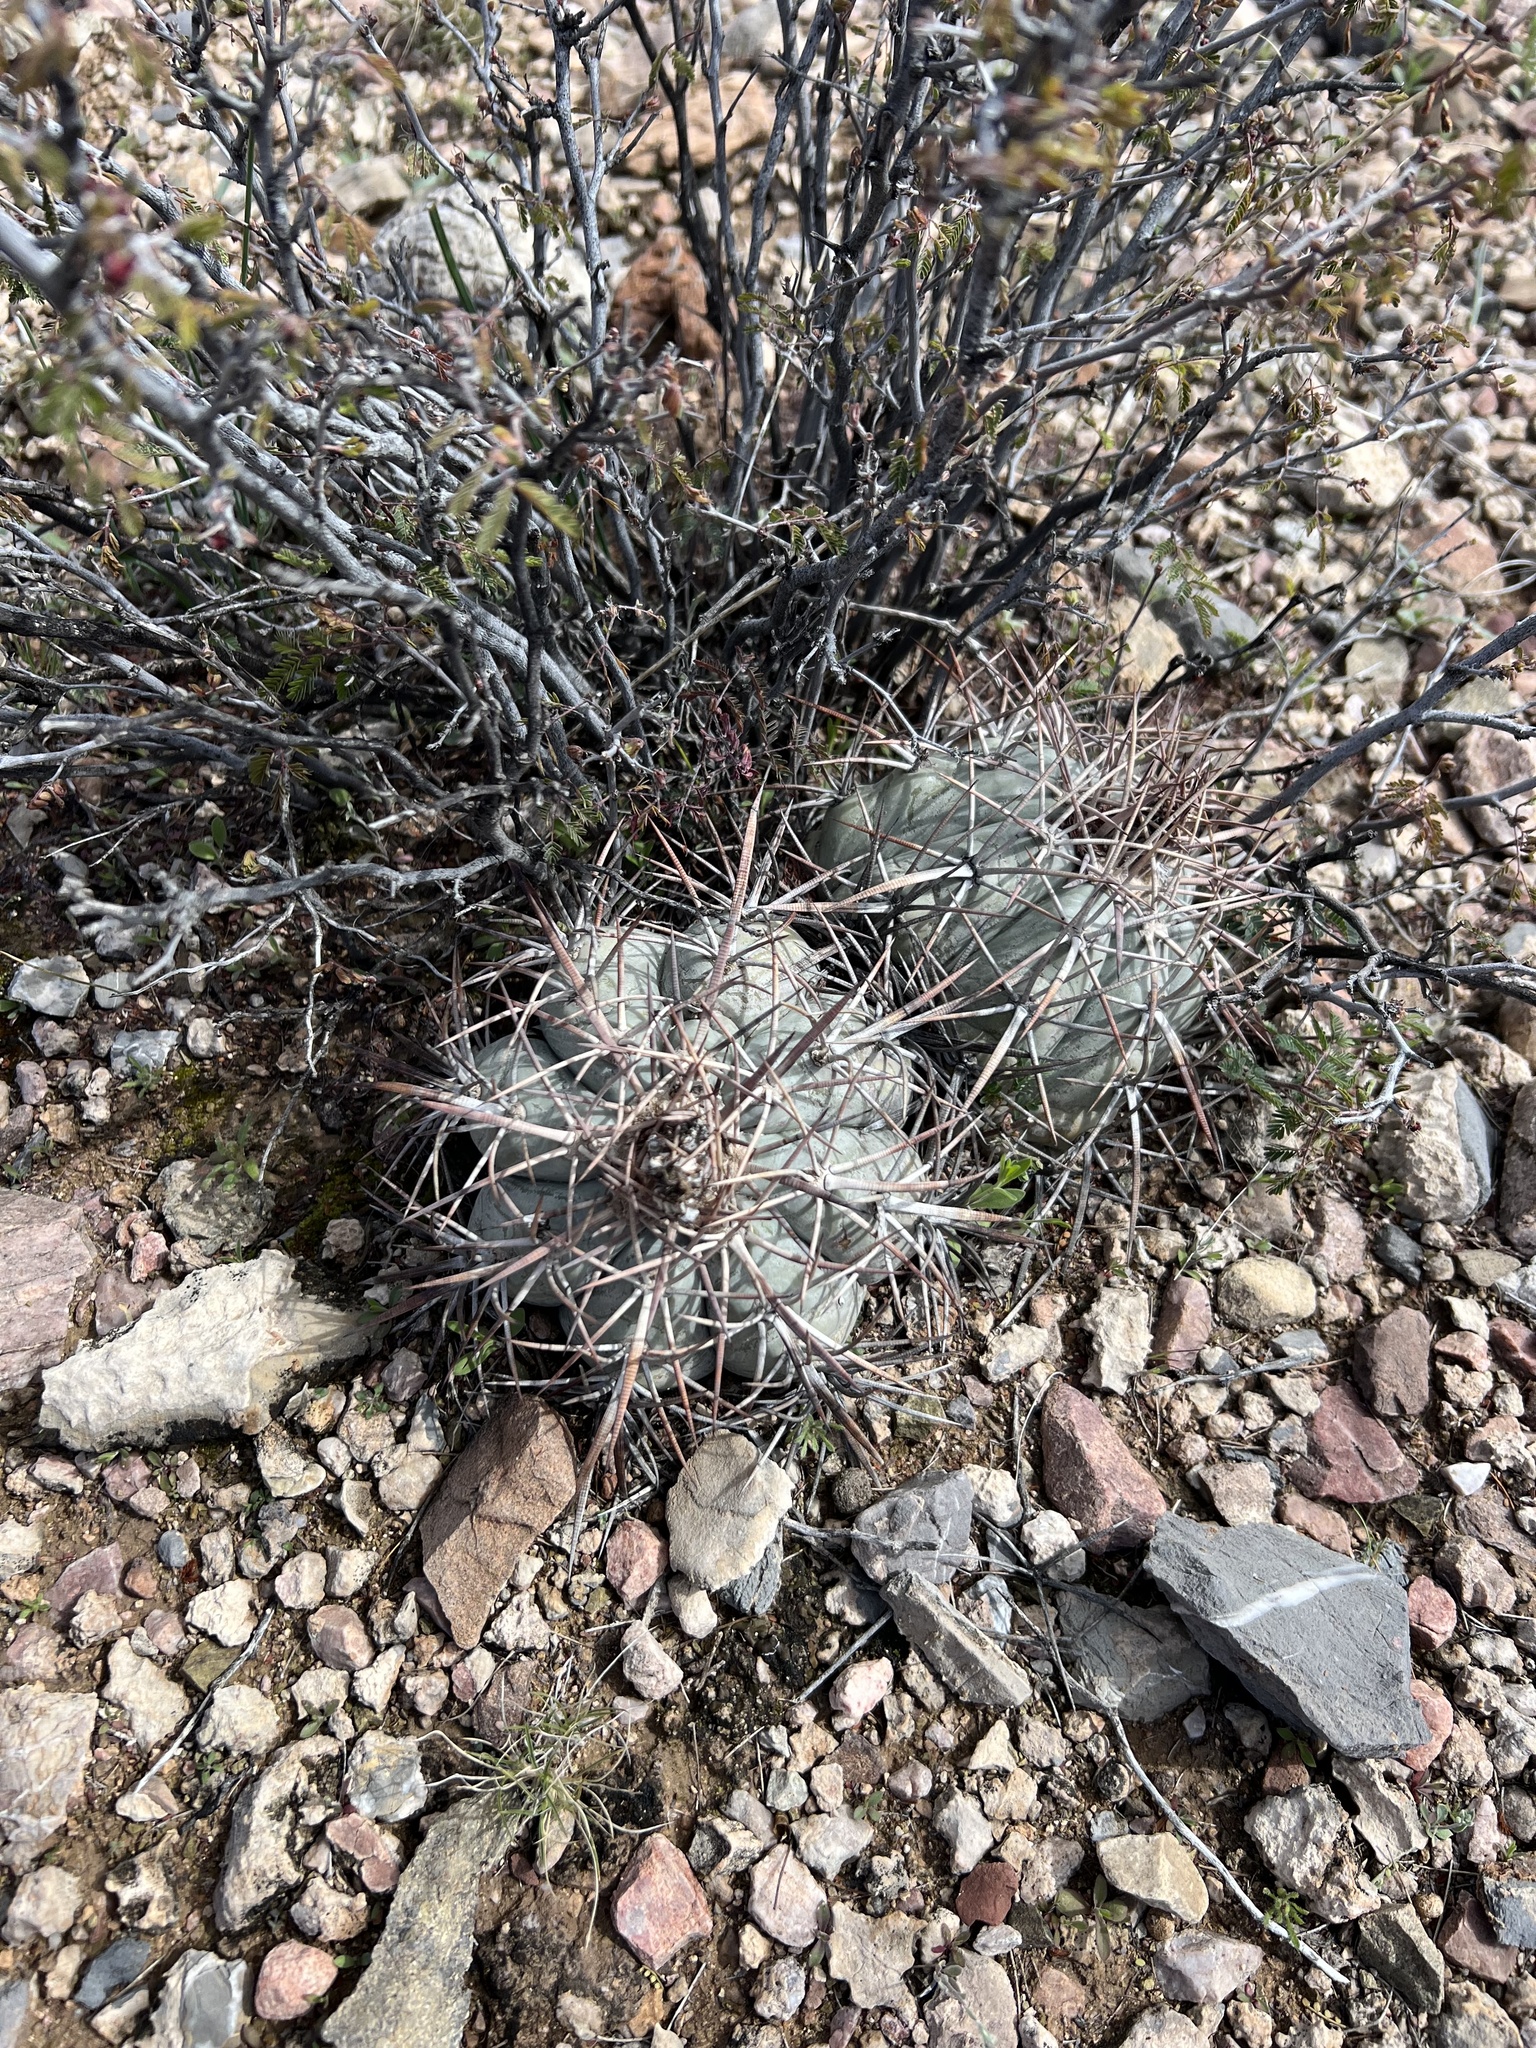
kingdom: Plantae
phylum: Tracheophyta
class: Magnoliopsida
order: Caryophyllales
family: Cactaceae
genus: Echinocactus
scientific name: Echinocactus horizonthalonius
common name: Devilshead
